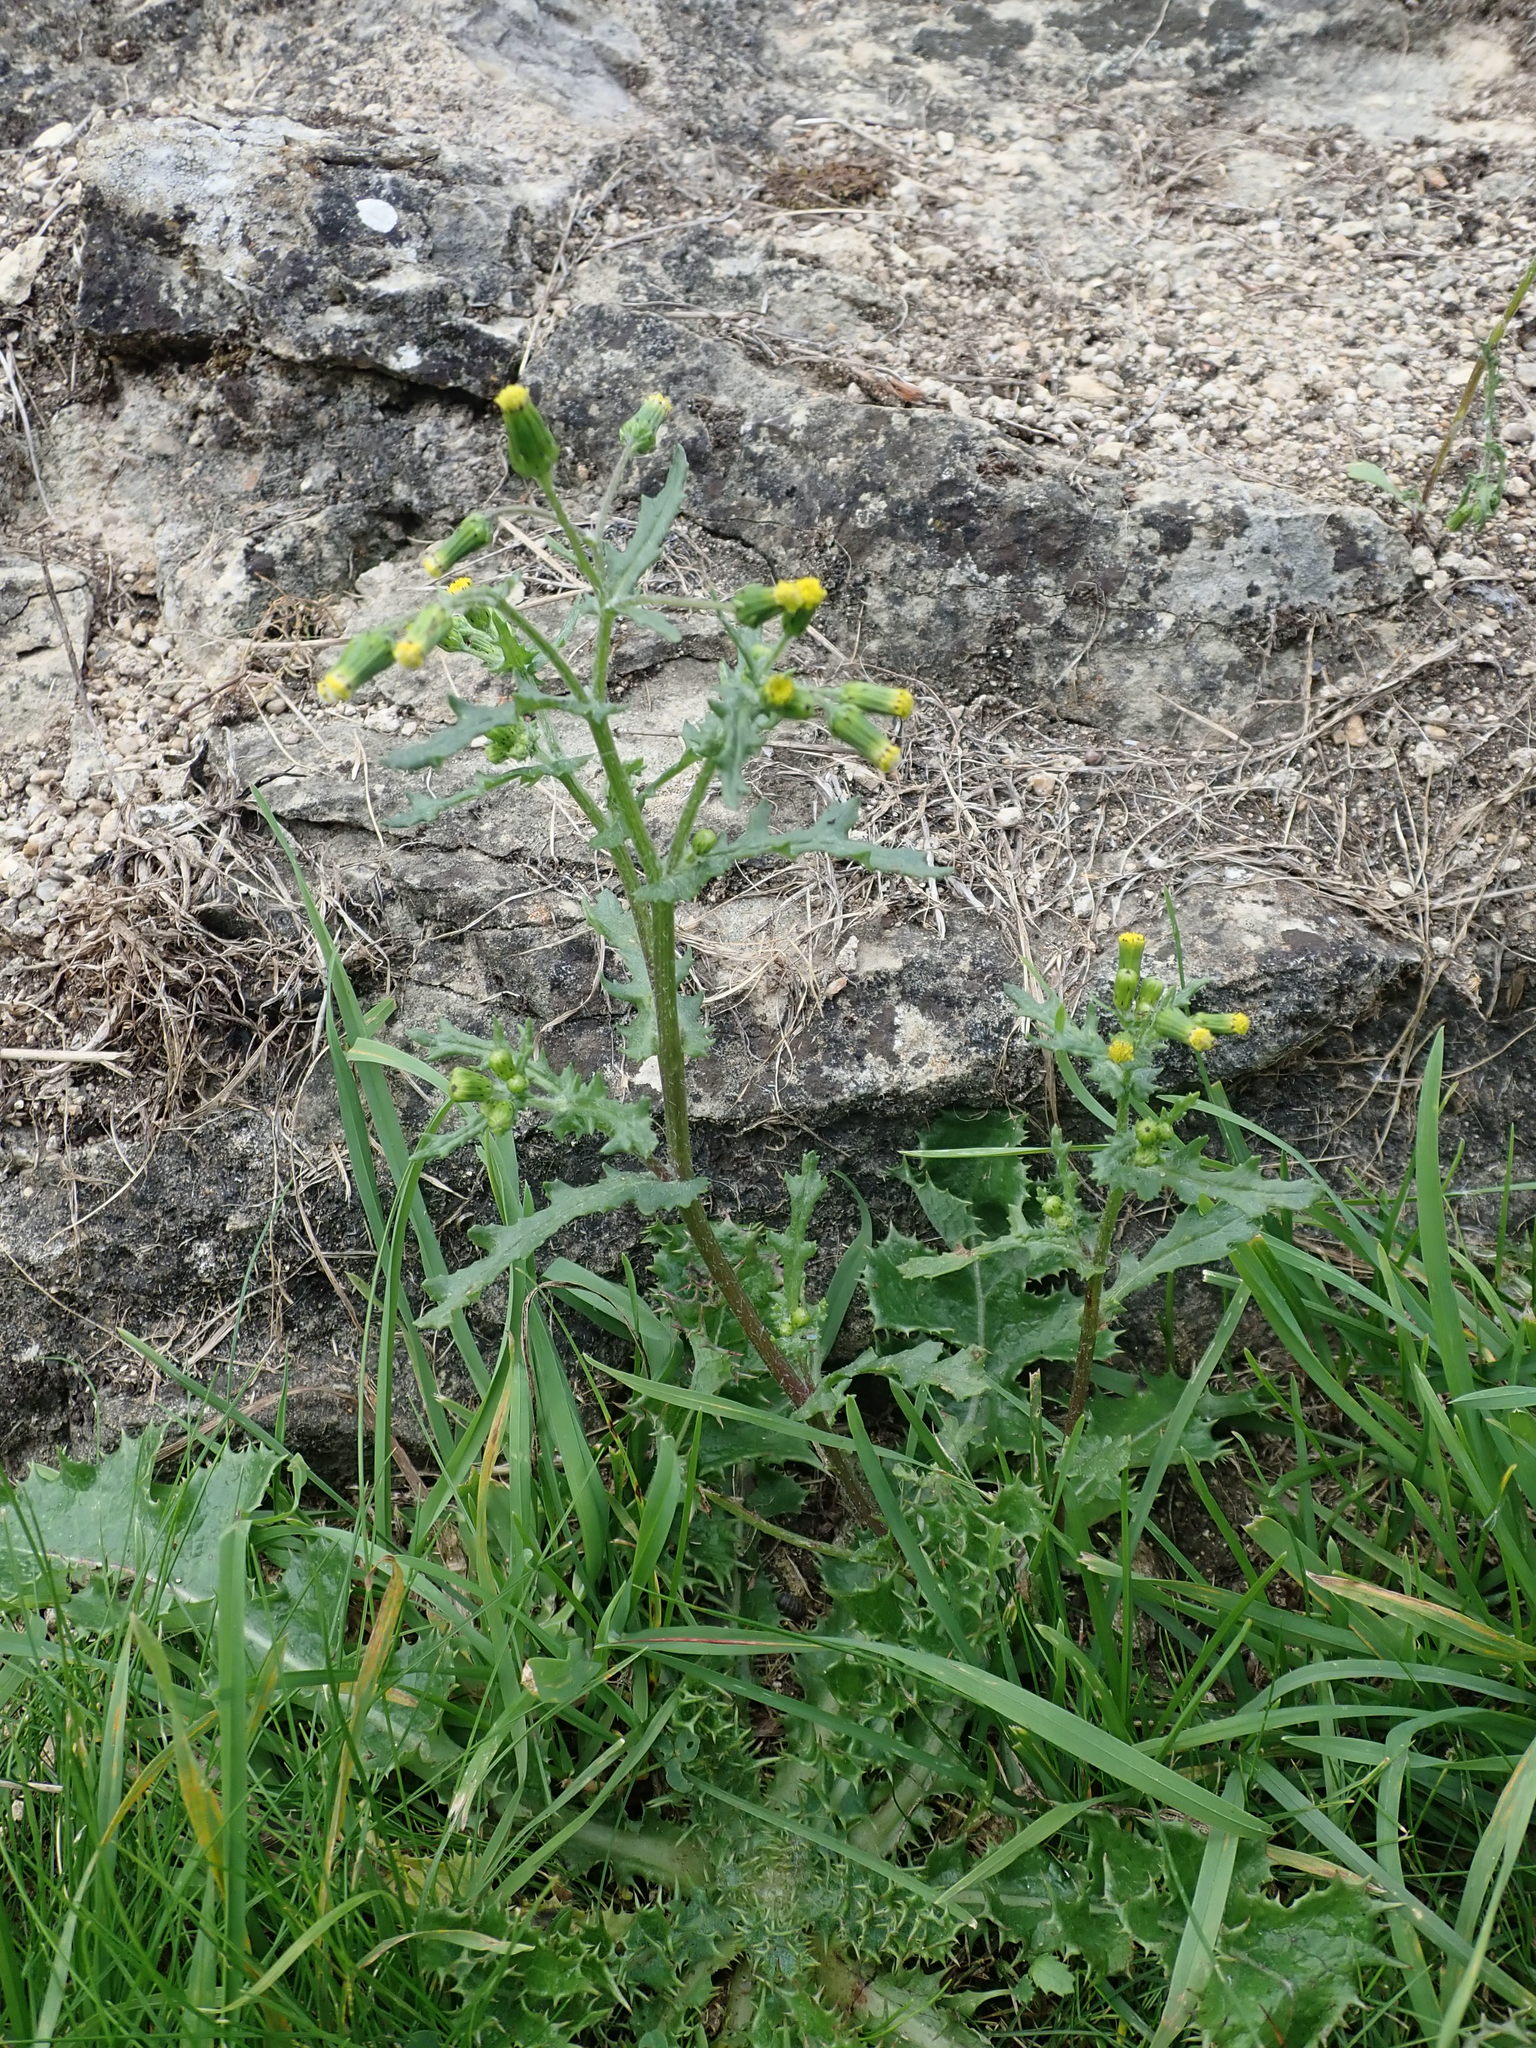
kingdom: Plantae
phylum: Tracheophyta
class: Magnoliopsida
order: Asterales
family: Asteraceae
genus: Senecio
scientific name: Senecio vulgaris
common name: Old-man-in-the-spring
